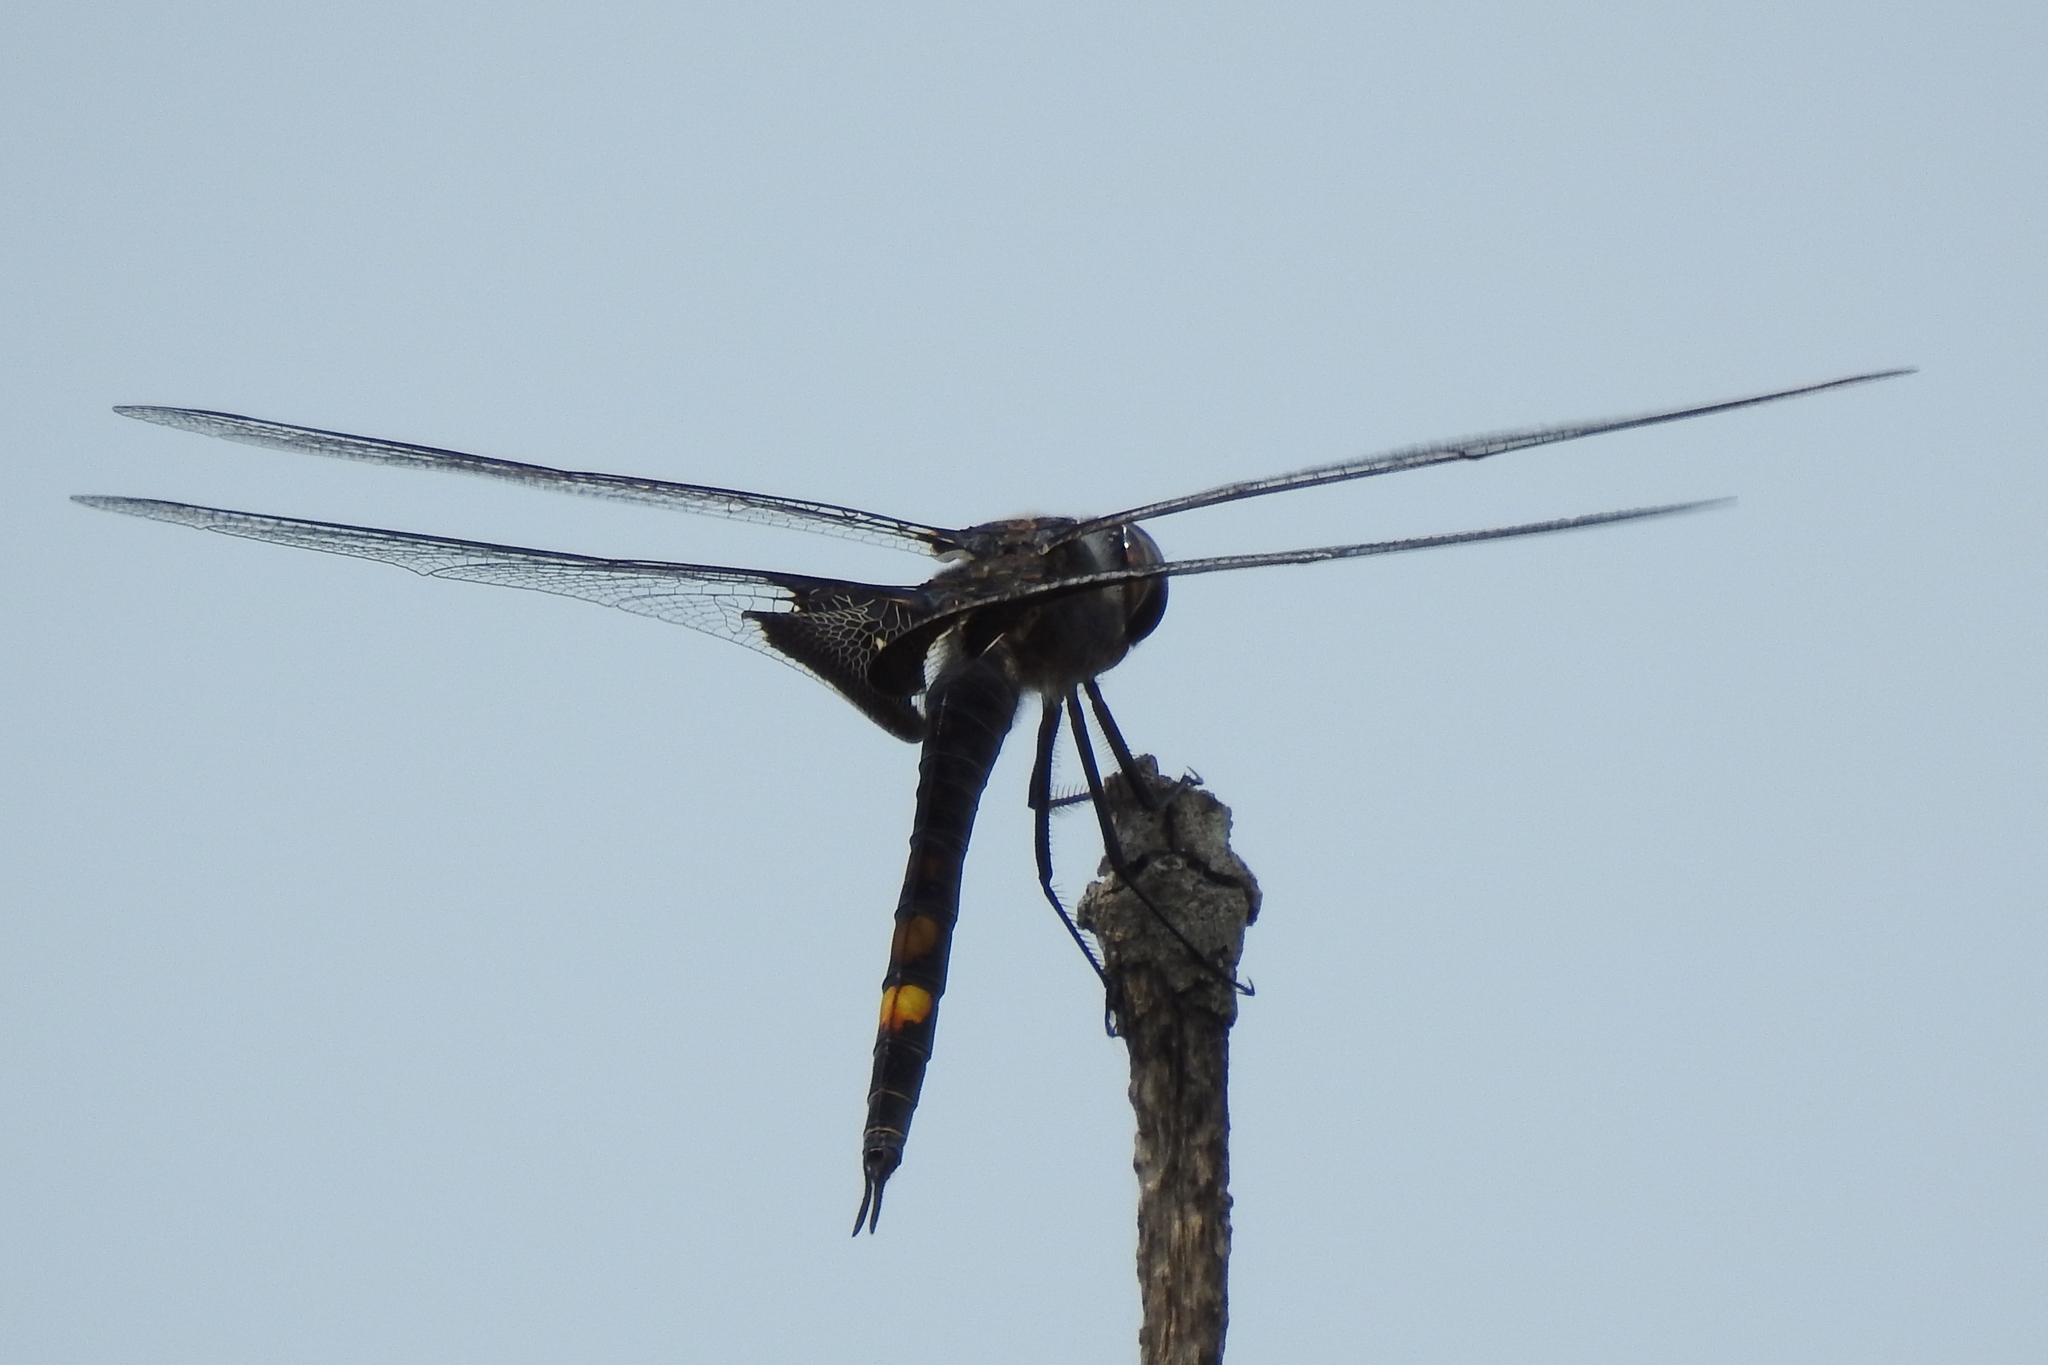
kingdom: Animalia
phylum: Arthropoda
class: Insecta
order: Odonata
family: Libellulidae
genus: Tramea
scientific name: Tramea lacerata
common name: Black saddlebags
